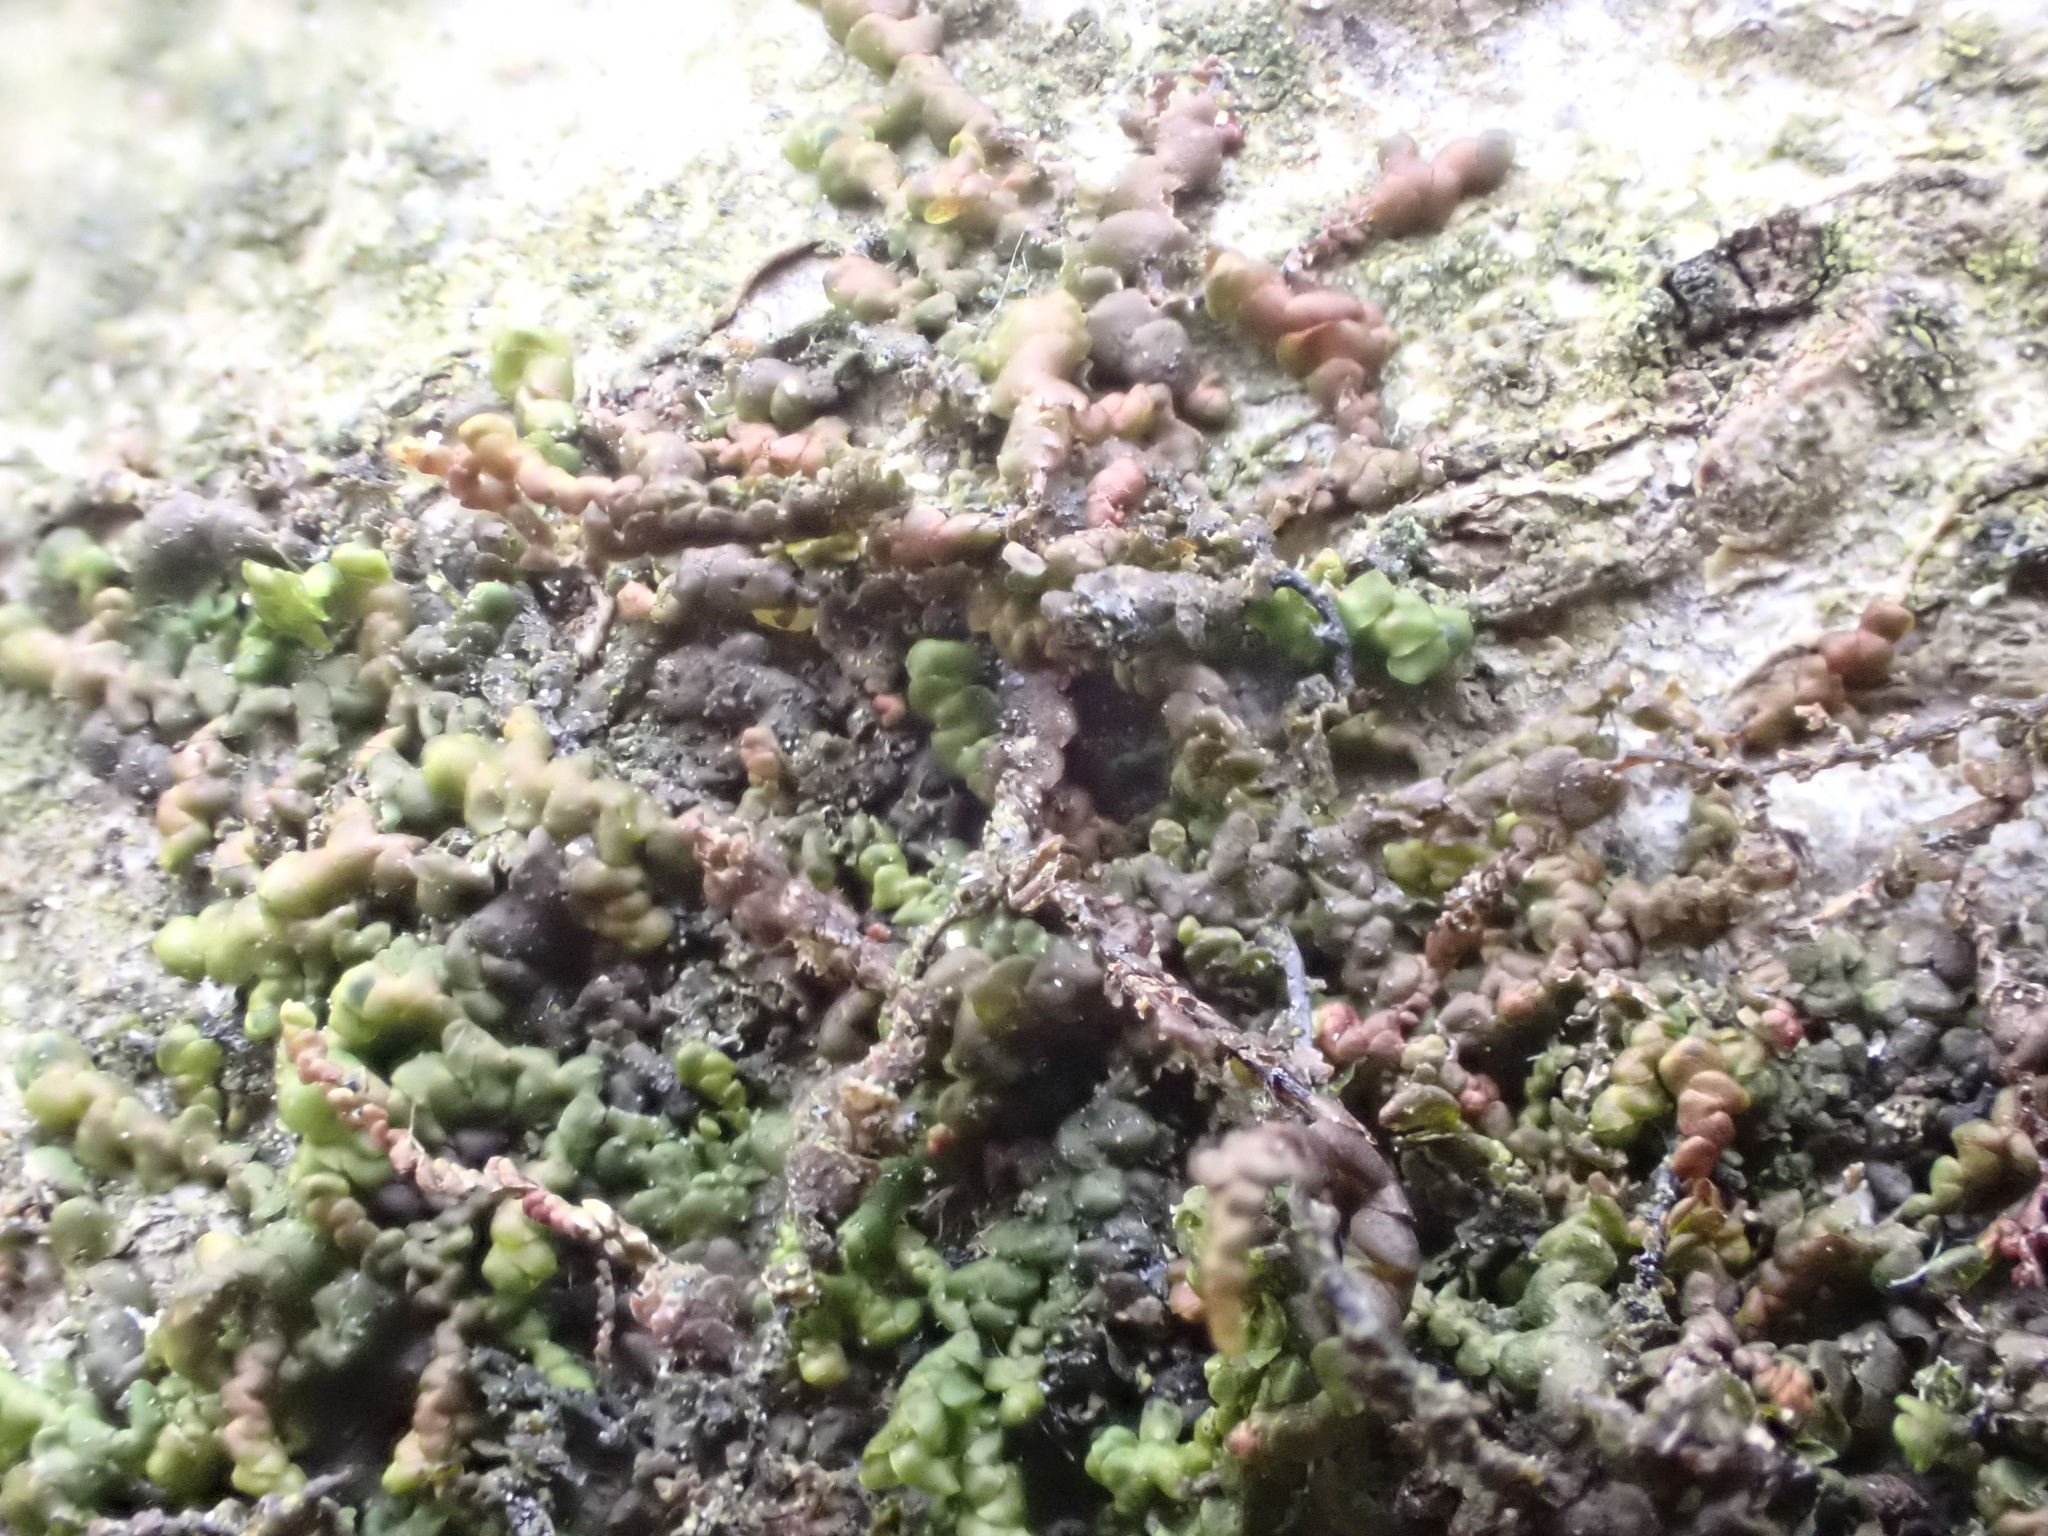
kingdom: Plantae
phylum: Marchantiophyta
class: Jungermanniopsida
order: Porellales
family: Frullaniaceae
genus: Frullania
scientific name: Frullania dilatata
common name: Dilated scalewort
